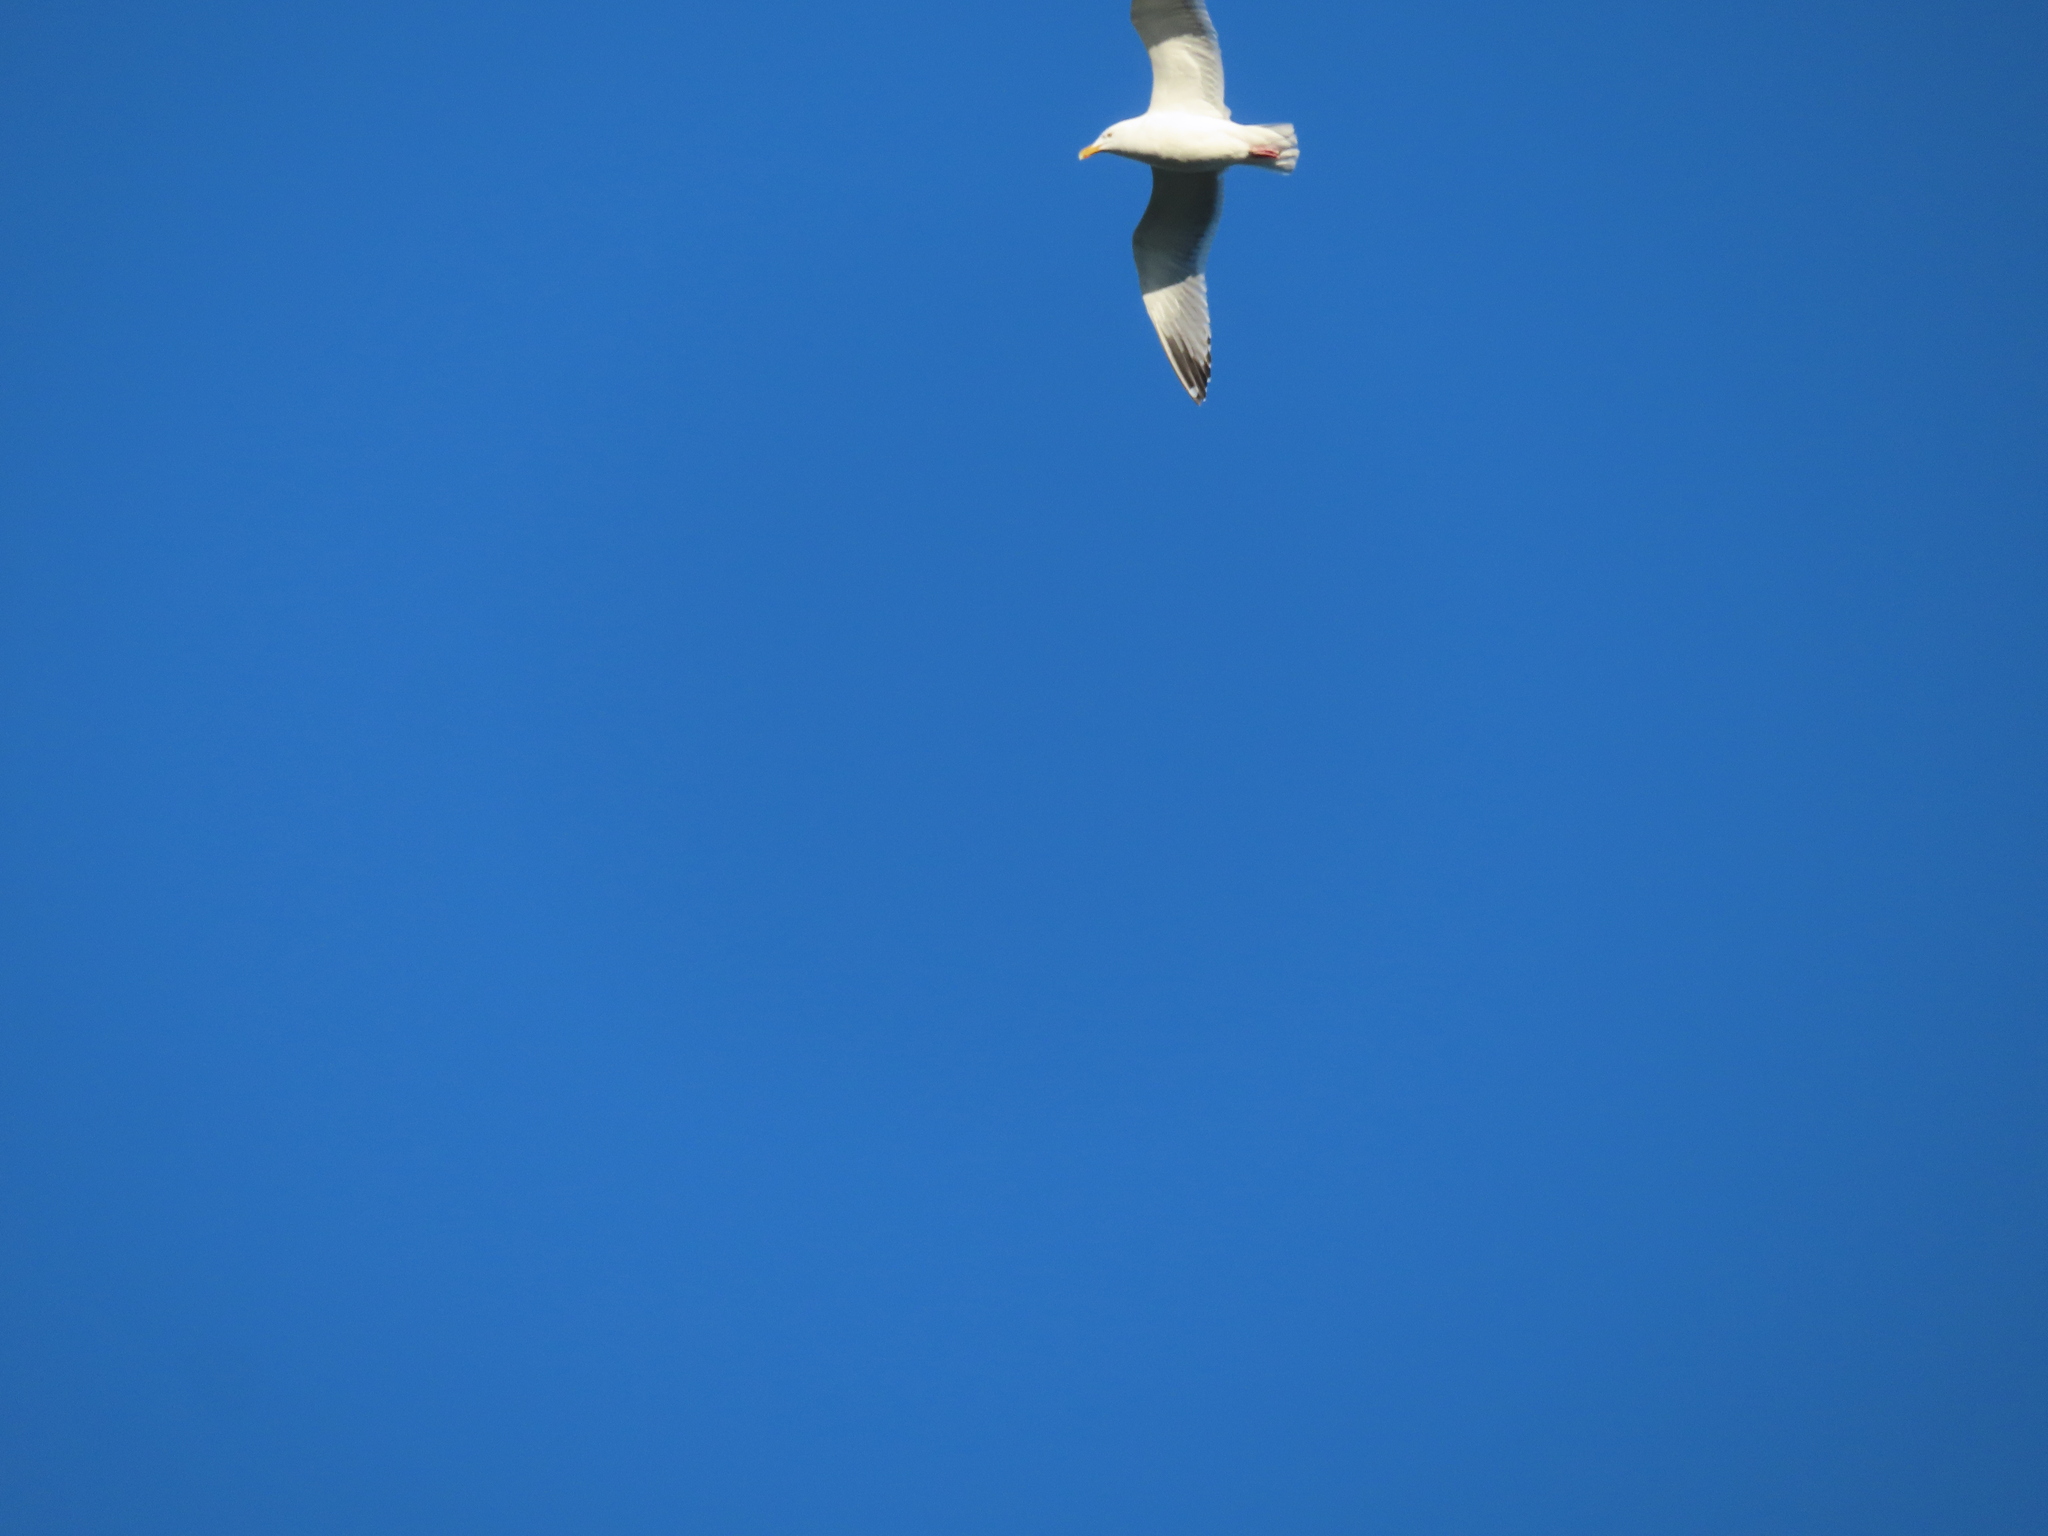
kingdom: Animalia
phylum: Chordata
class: Aves
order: Charadriiformes
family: Laridae
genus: Larus
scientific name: Larus argentatus
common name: Herring gull
